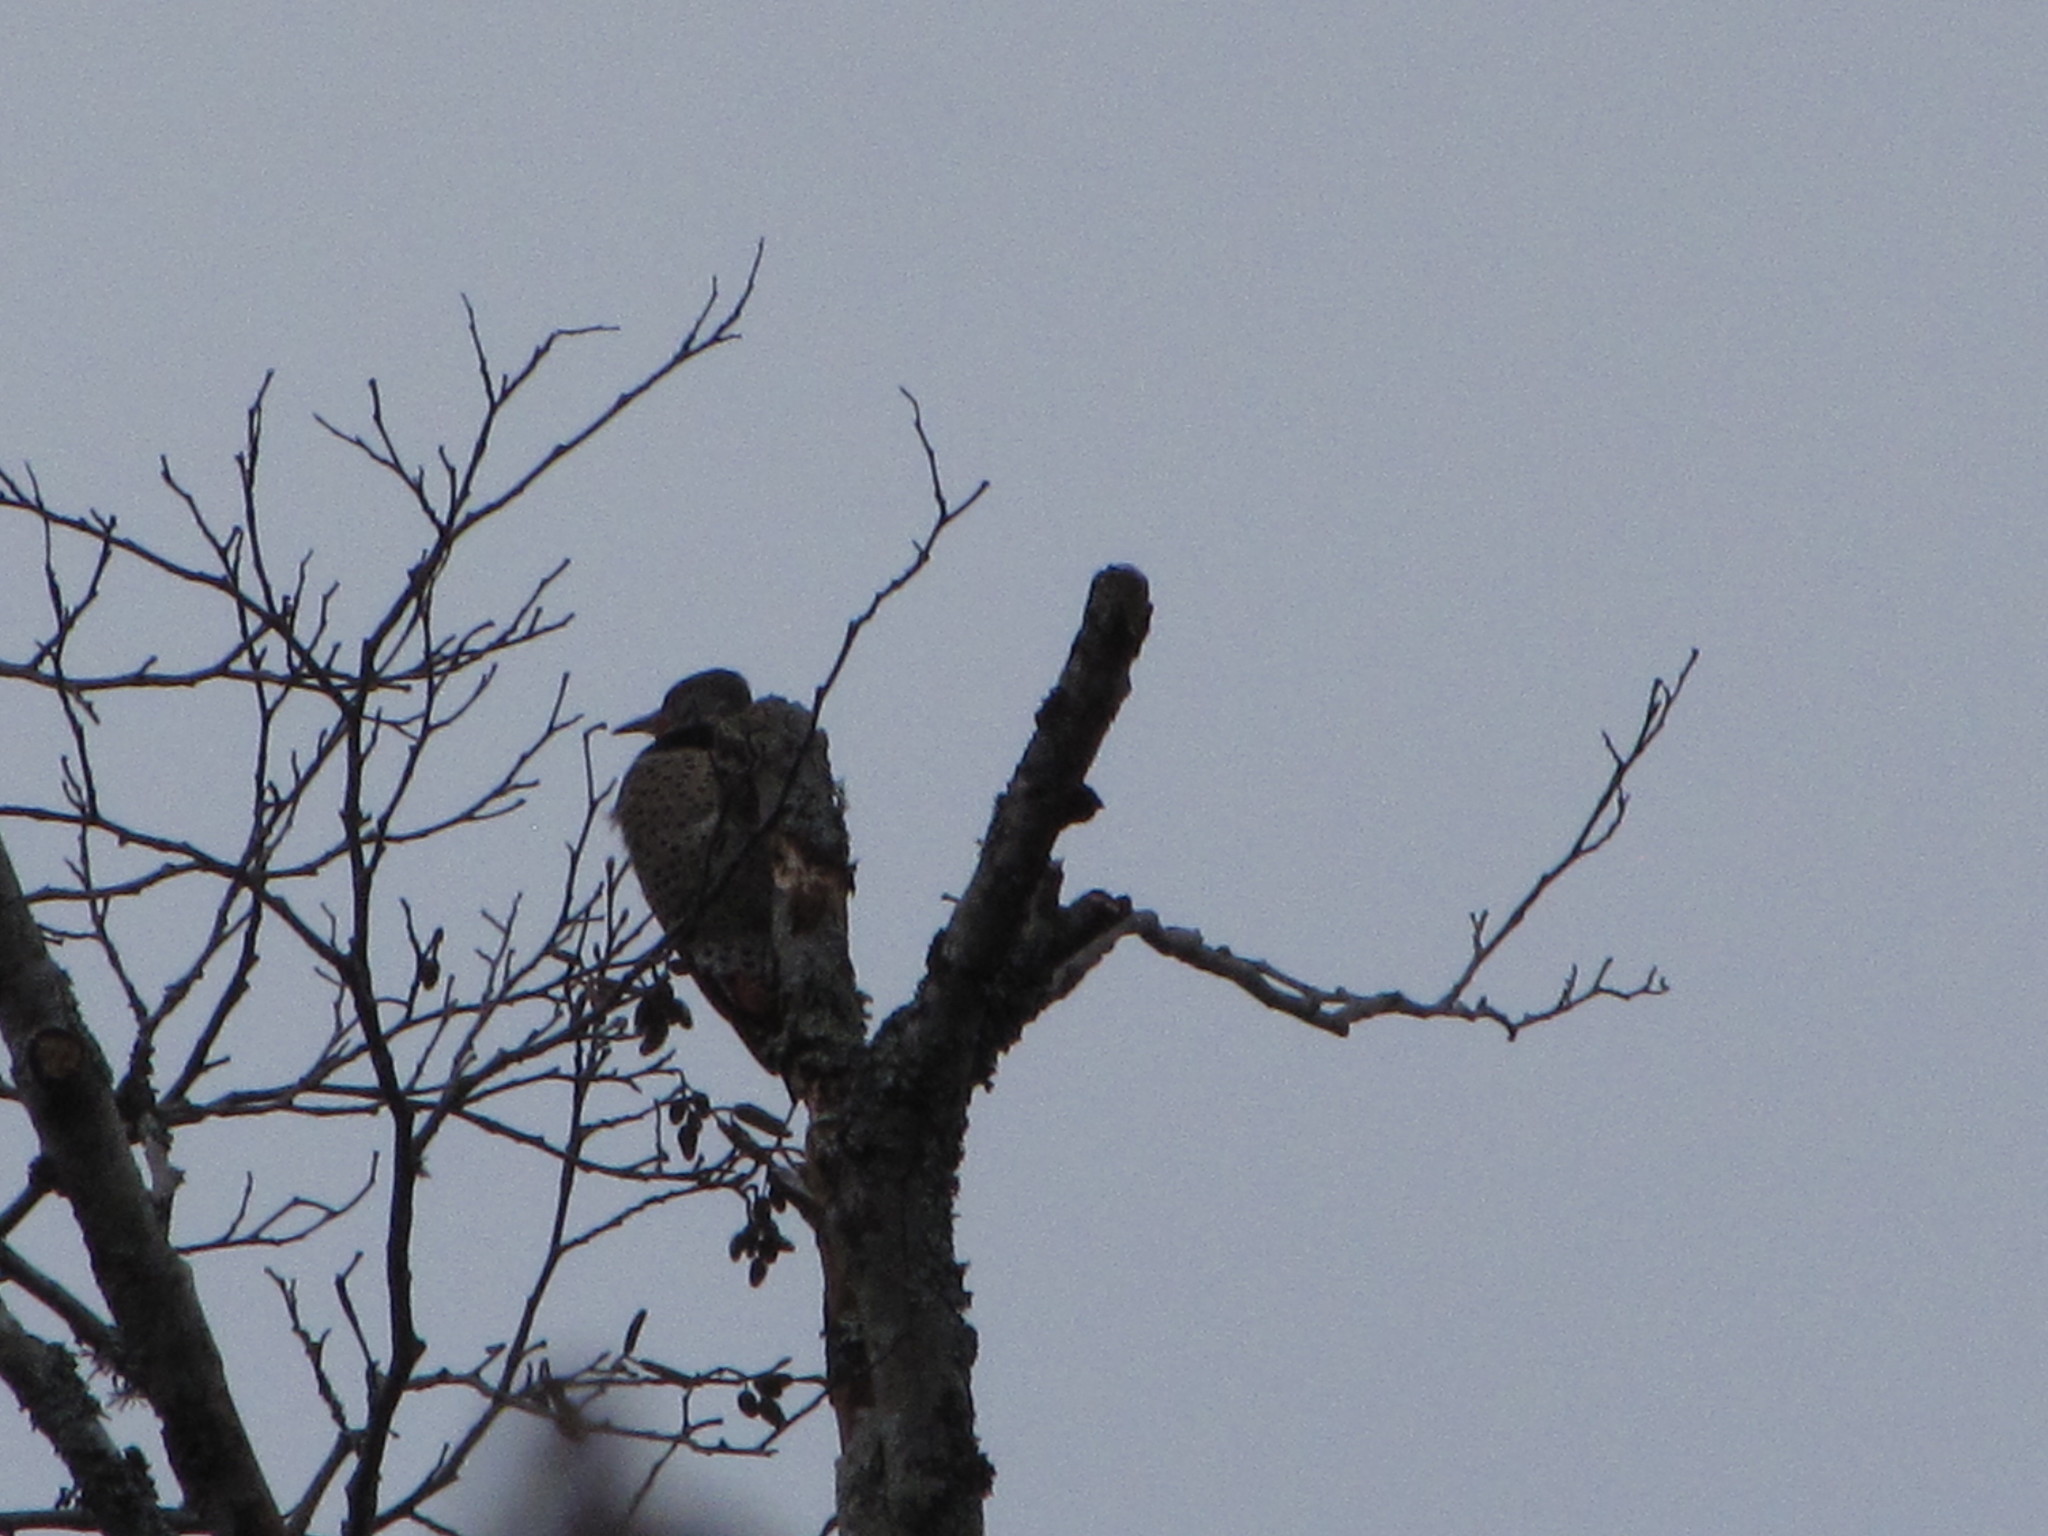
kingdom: Animalia
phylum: Chordata
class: Aves
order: Piciformes
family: Picidae
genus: Colaptes
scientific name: Colaptes auratus
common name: Northern flicker
